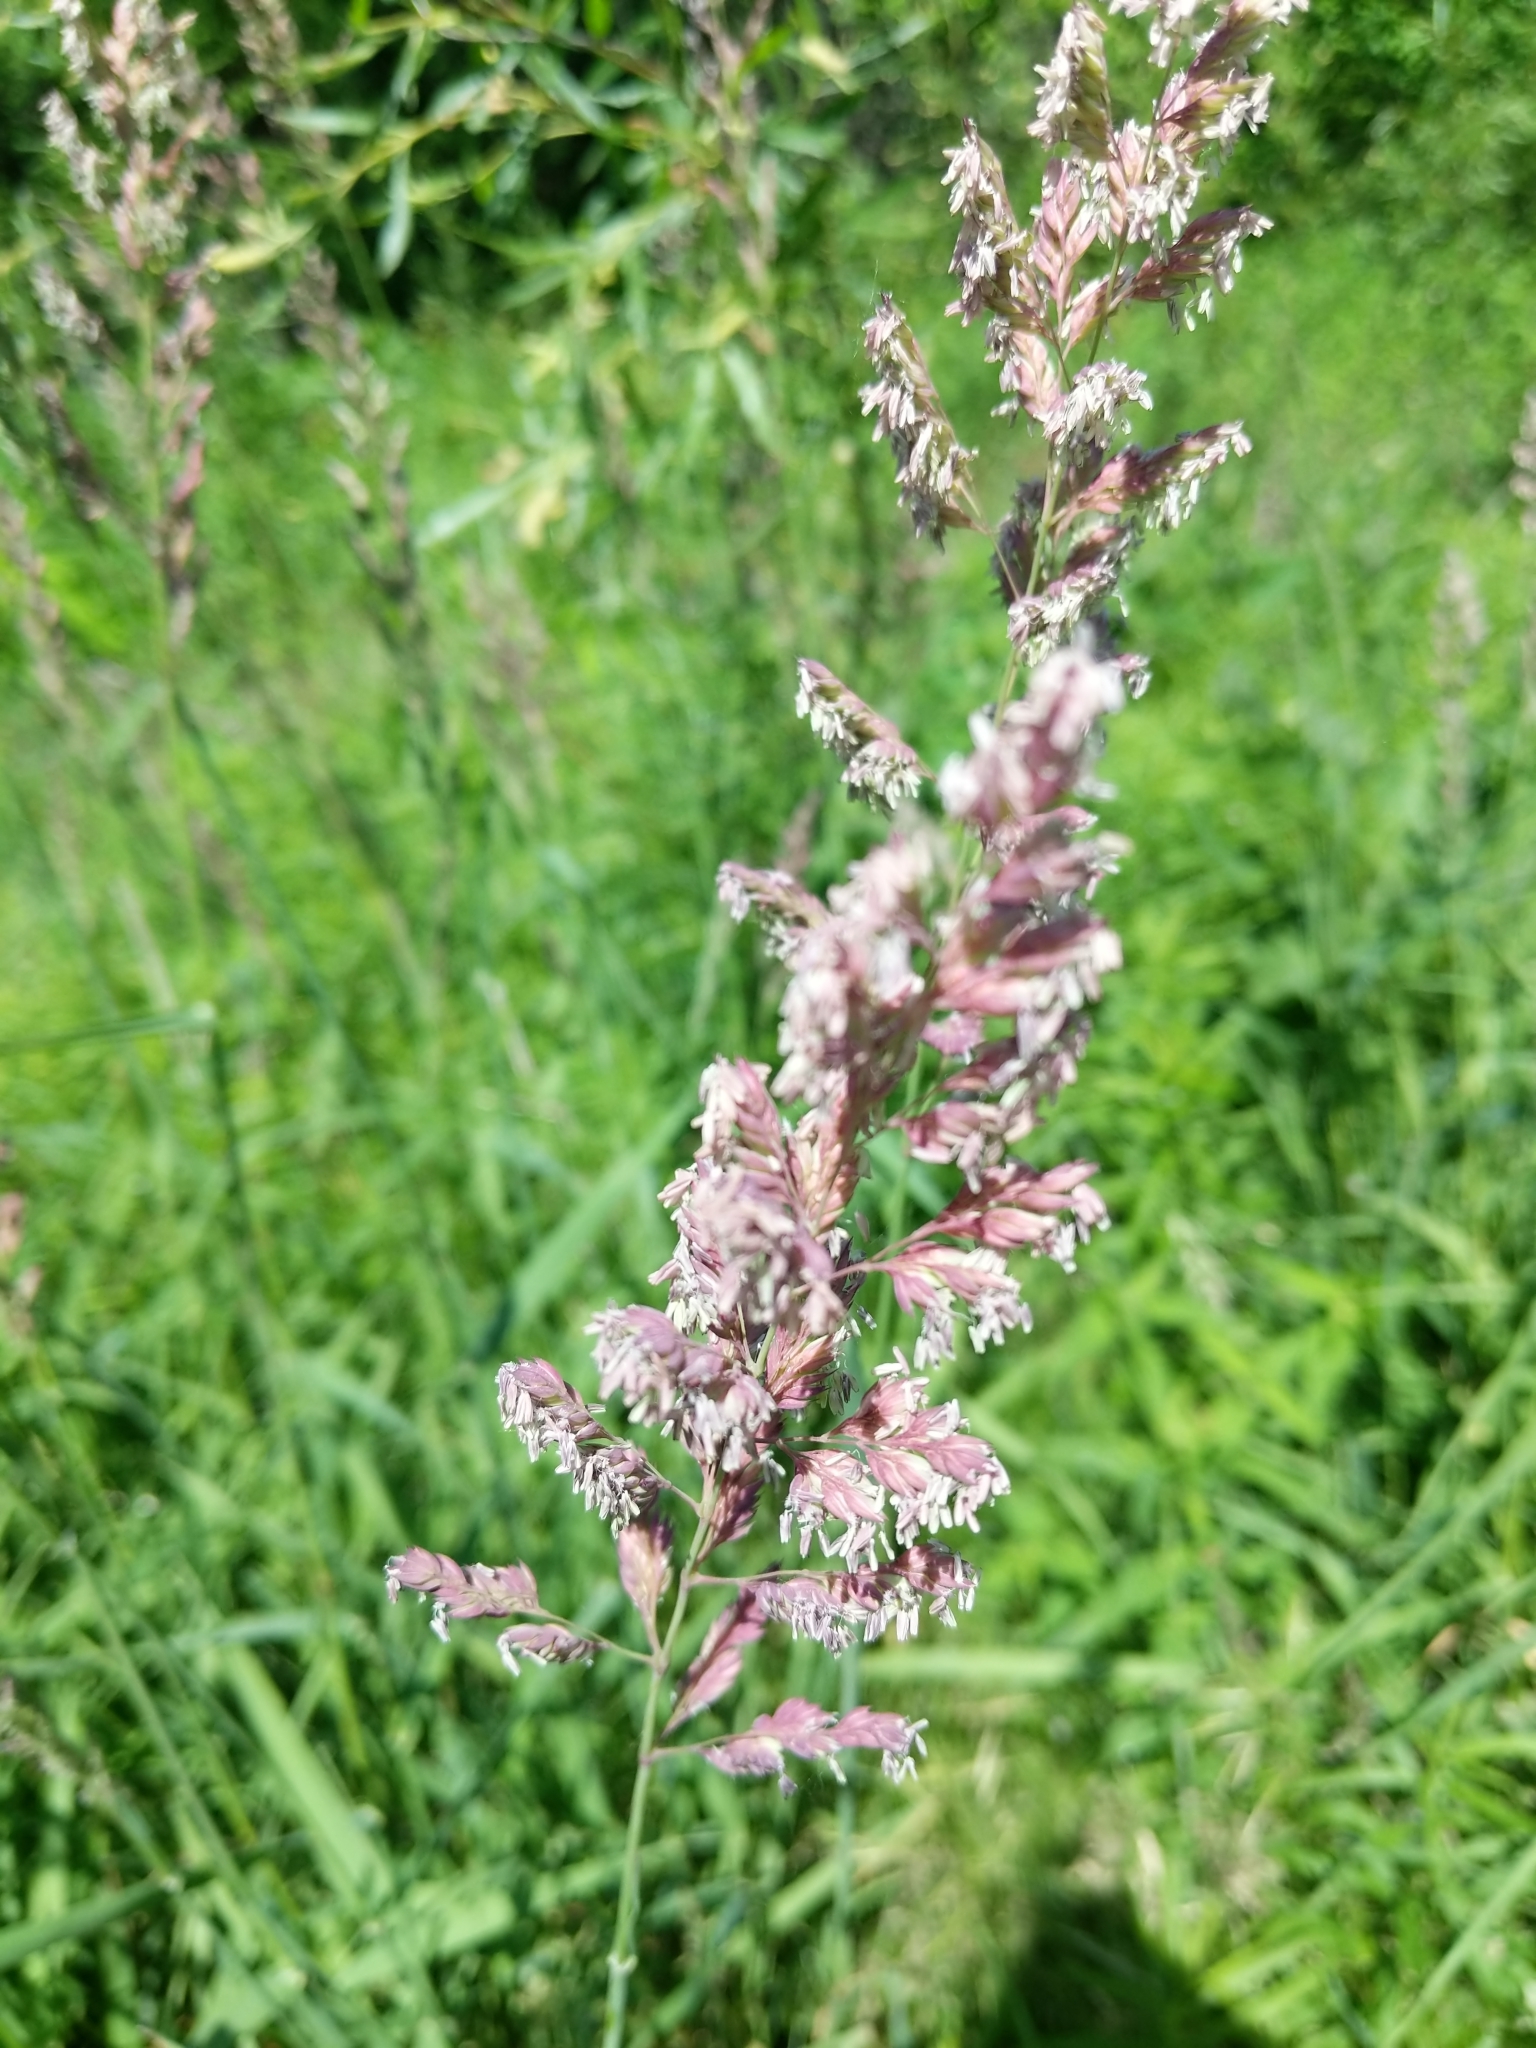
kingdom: Plantae
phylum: Tracheophyta
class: Liliopsida
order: Poales
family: Poaceae
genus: Phalaris
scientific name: Phalaris arundinacea
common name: Reed canary-grass
